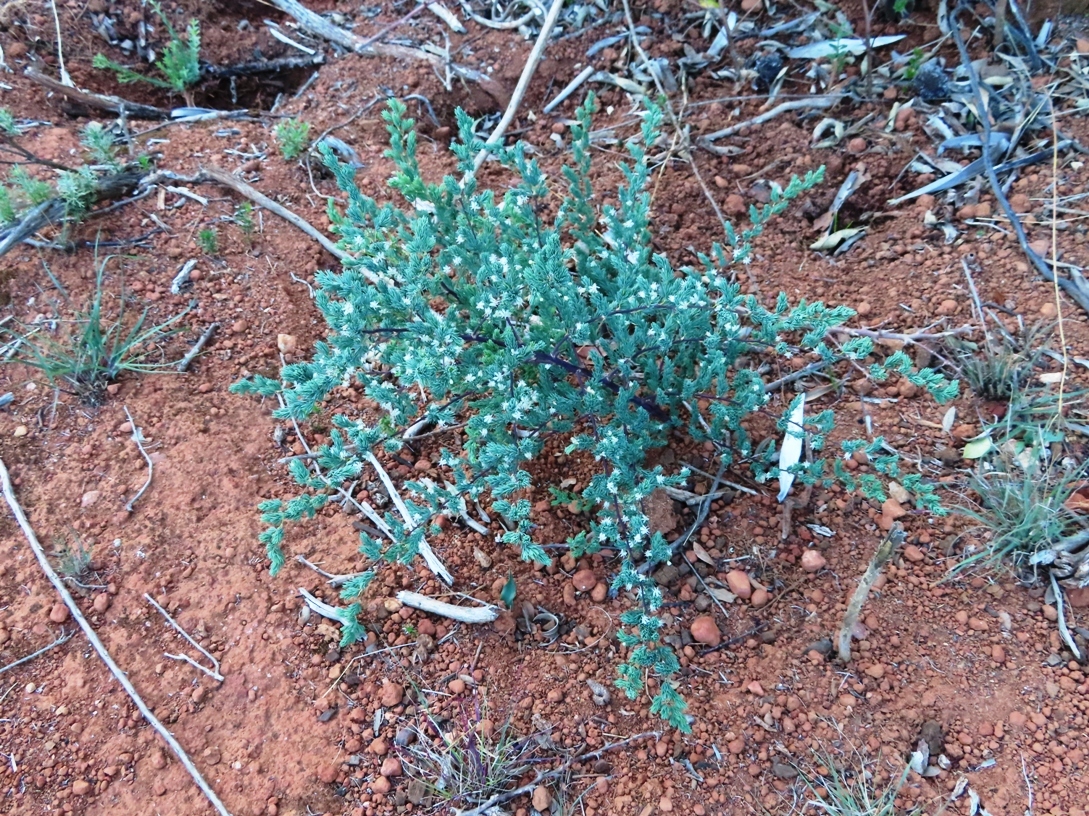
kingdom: Plantae
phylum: Tracheophyta
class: Liliopsida
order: Asparagales
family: Asparagaceae
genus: Asparagus
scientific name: Asparagus rubicundus
